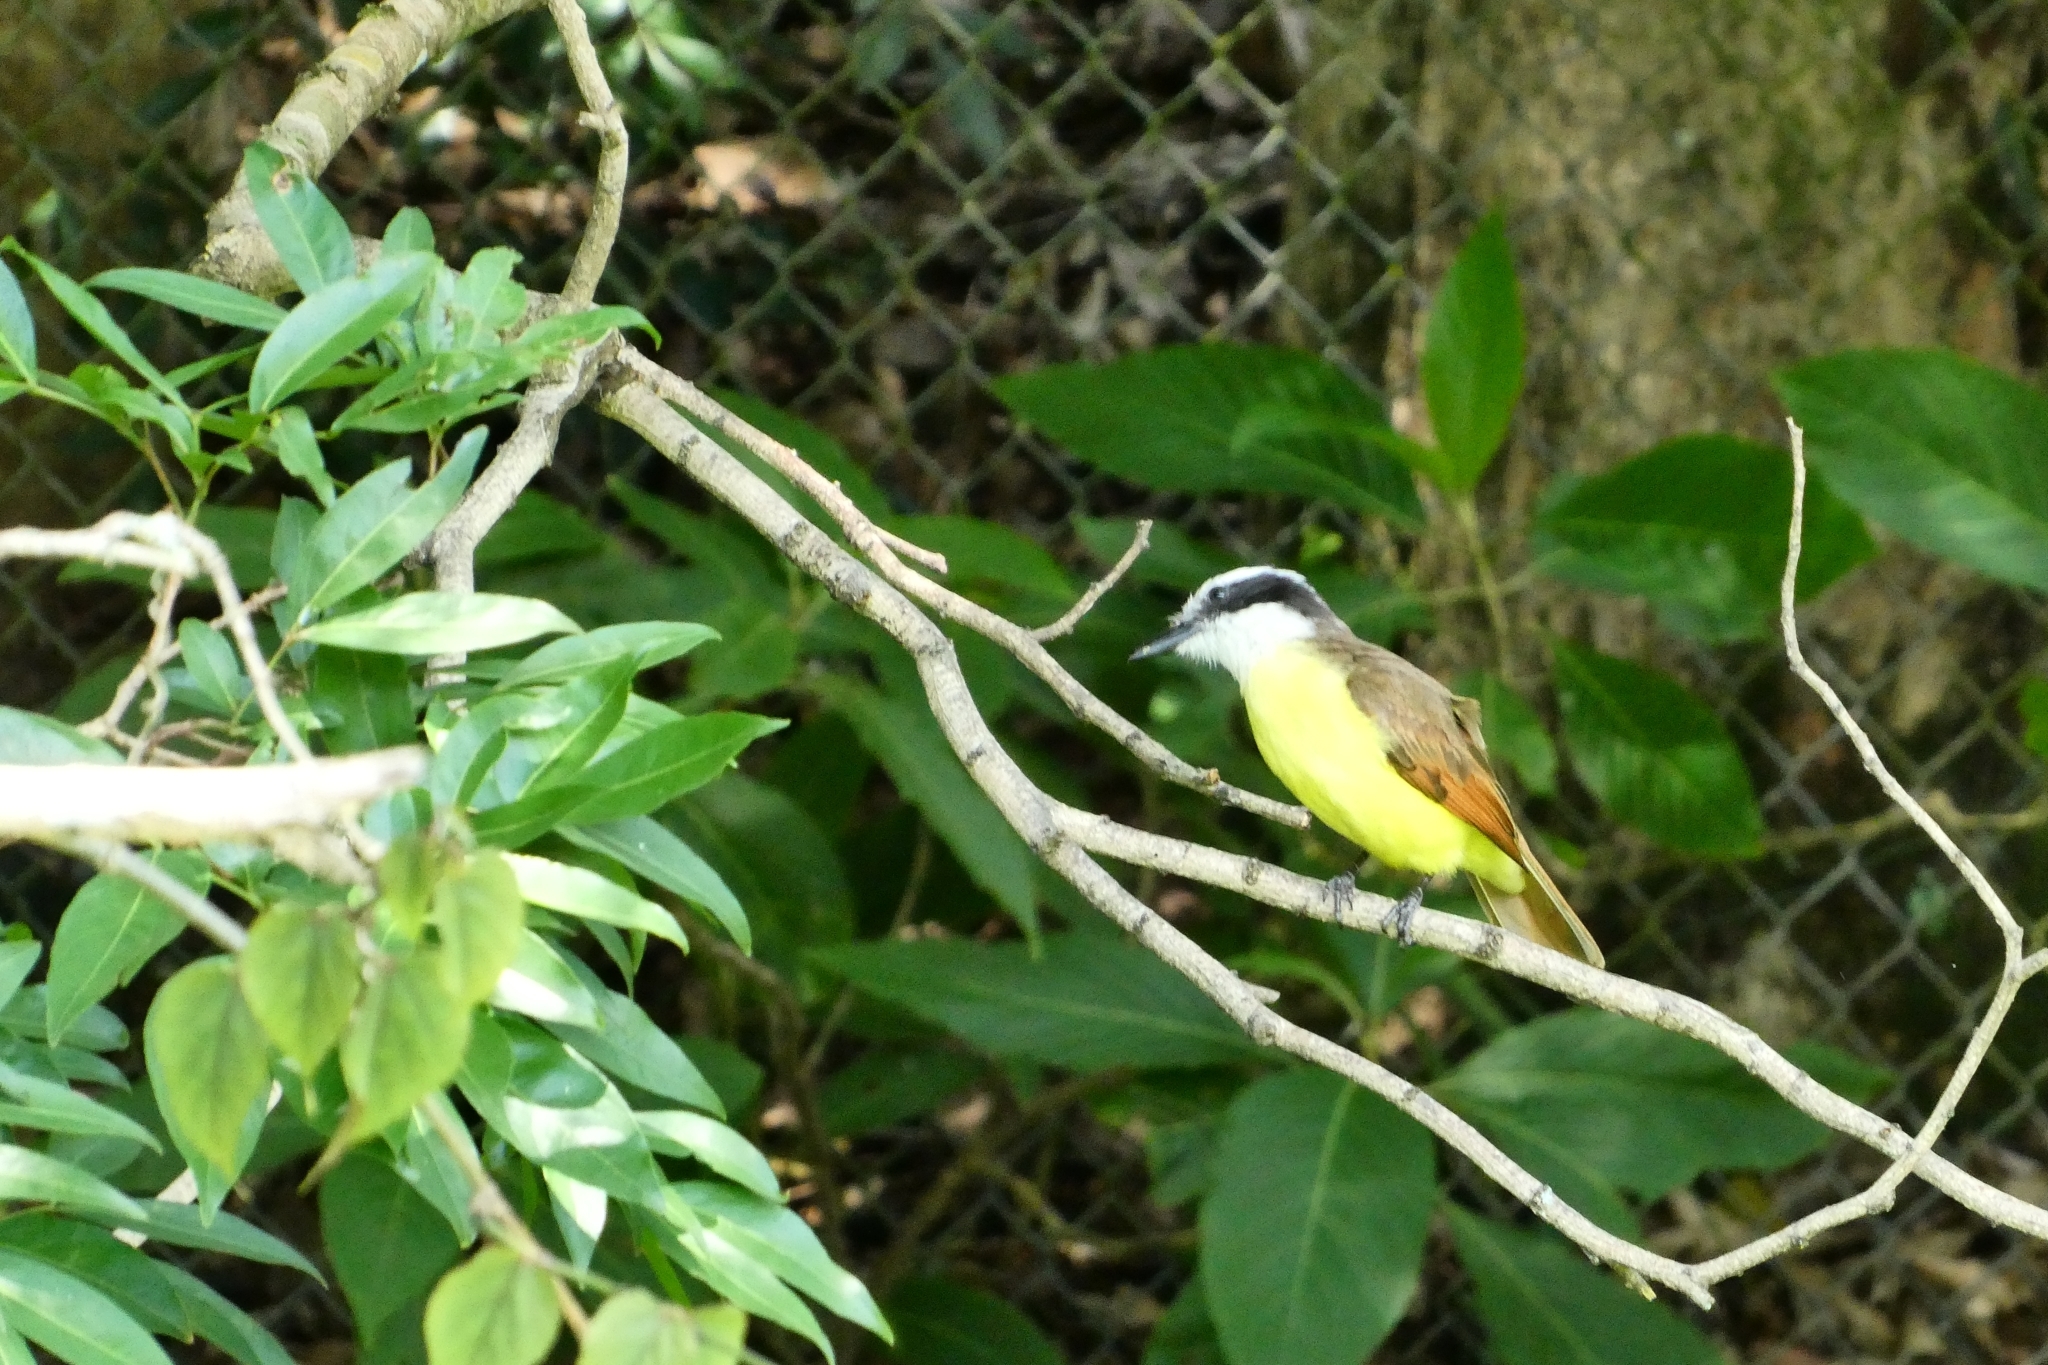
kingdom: Animalia
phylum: Chordata
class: Aves
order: Passeriformes
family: Tyrannidae
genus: Pitangus
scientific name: Pitangus sulphuratus
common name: Great kiskadee
